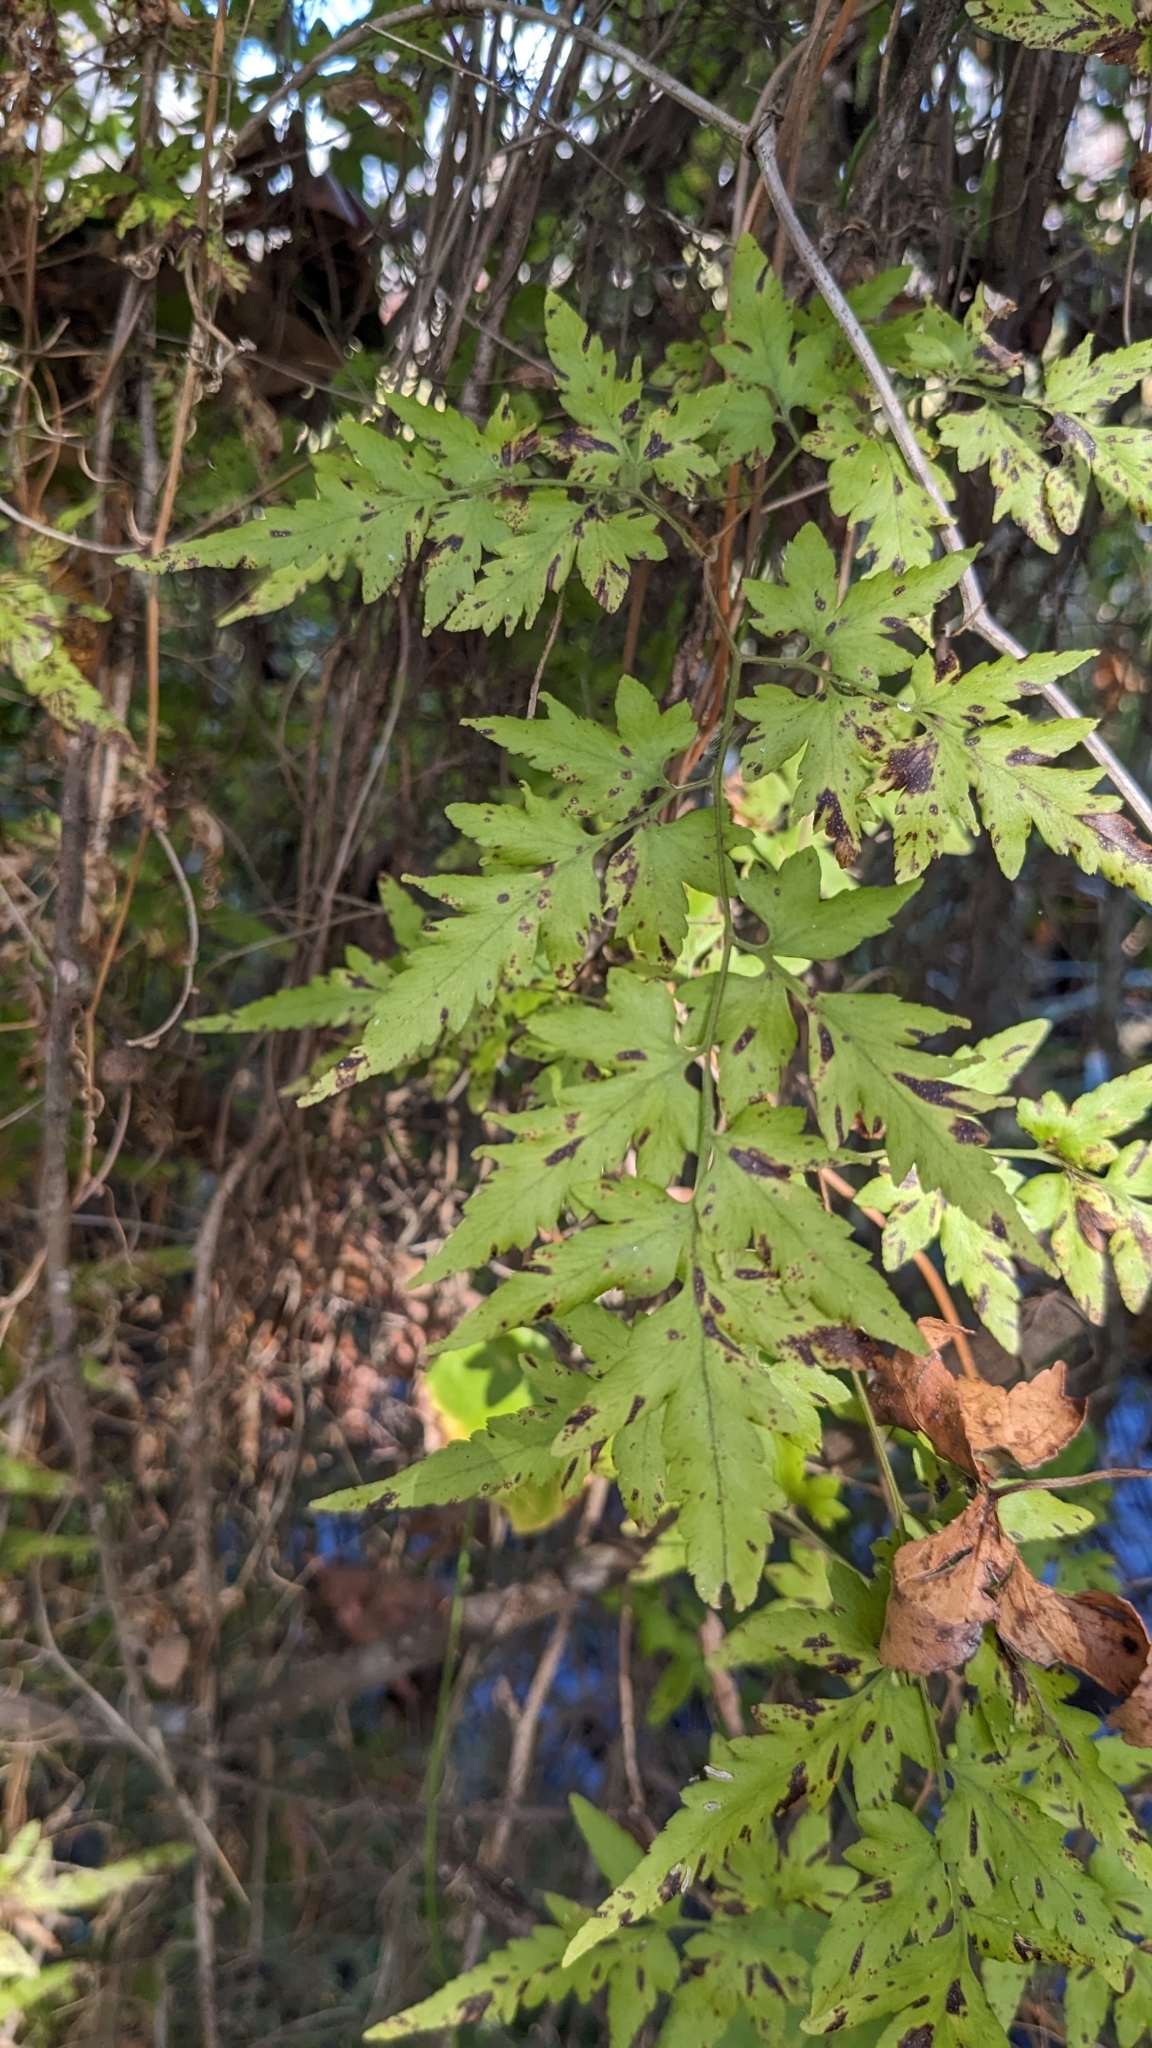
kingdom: Plantae
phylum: Tracheophyta
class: Polypodiopsida
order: Schizaeales
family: Lygodiaceae
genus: Lygodium
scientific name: Lygodium japonicum
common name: Japanese climbing fern
